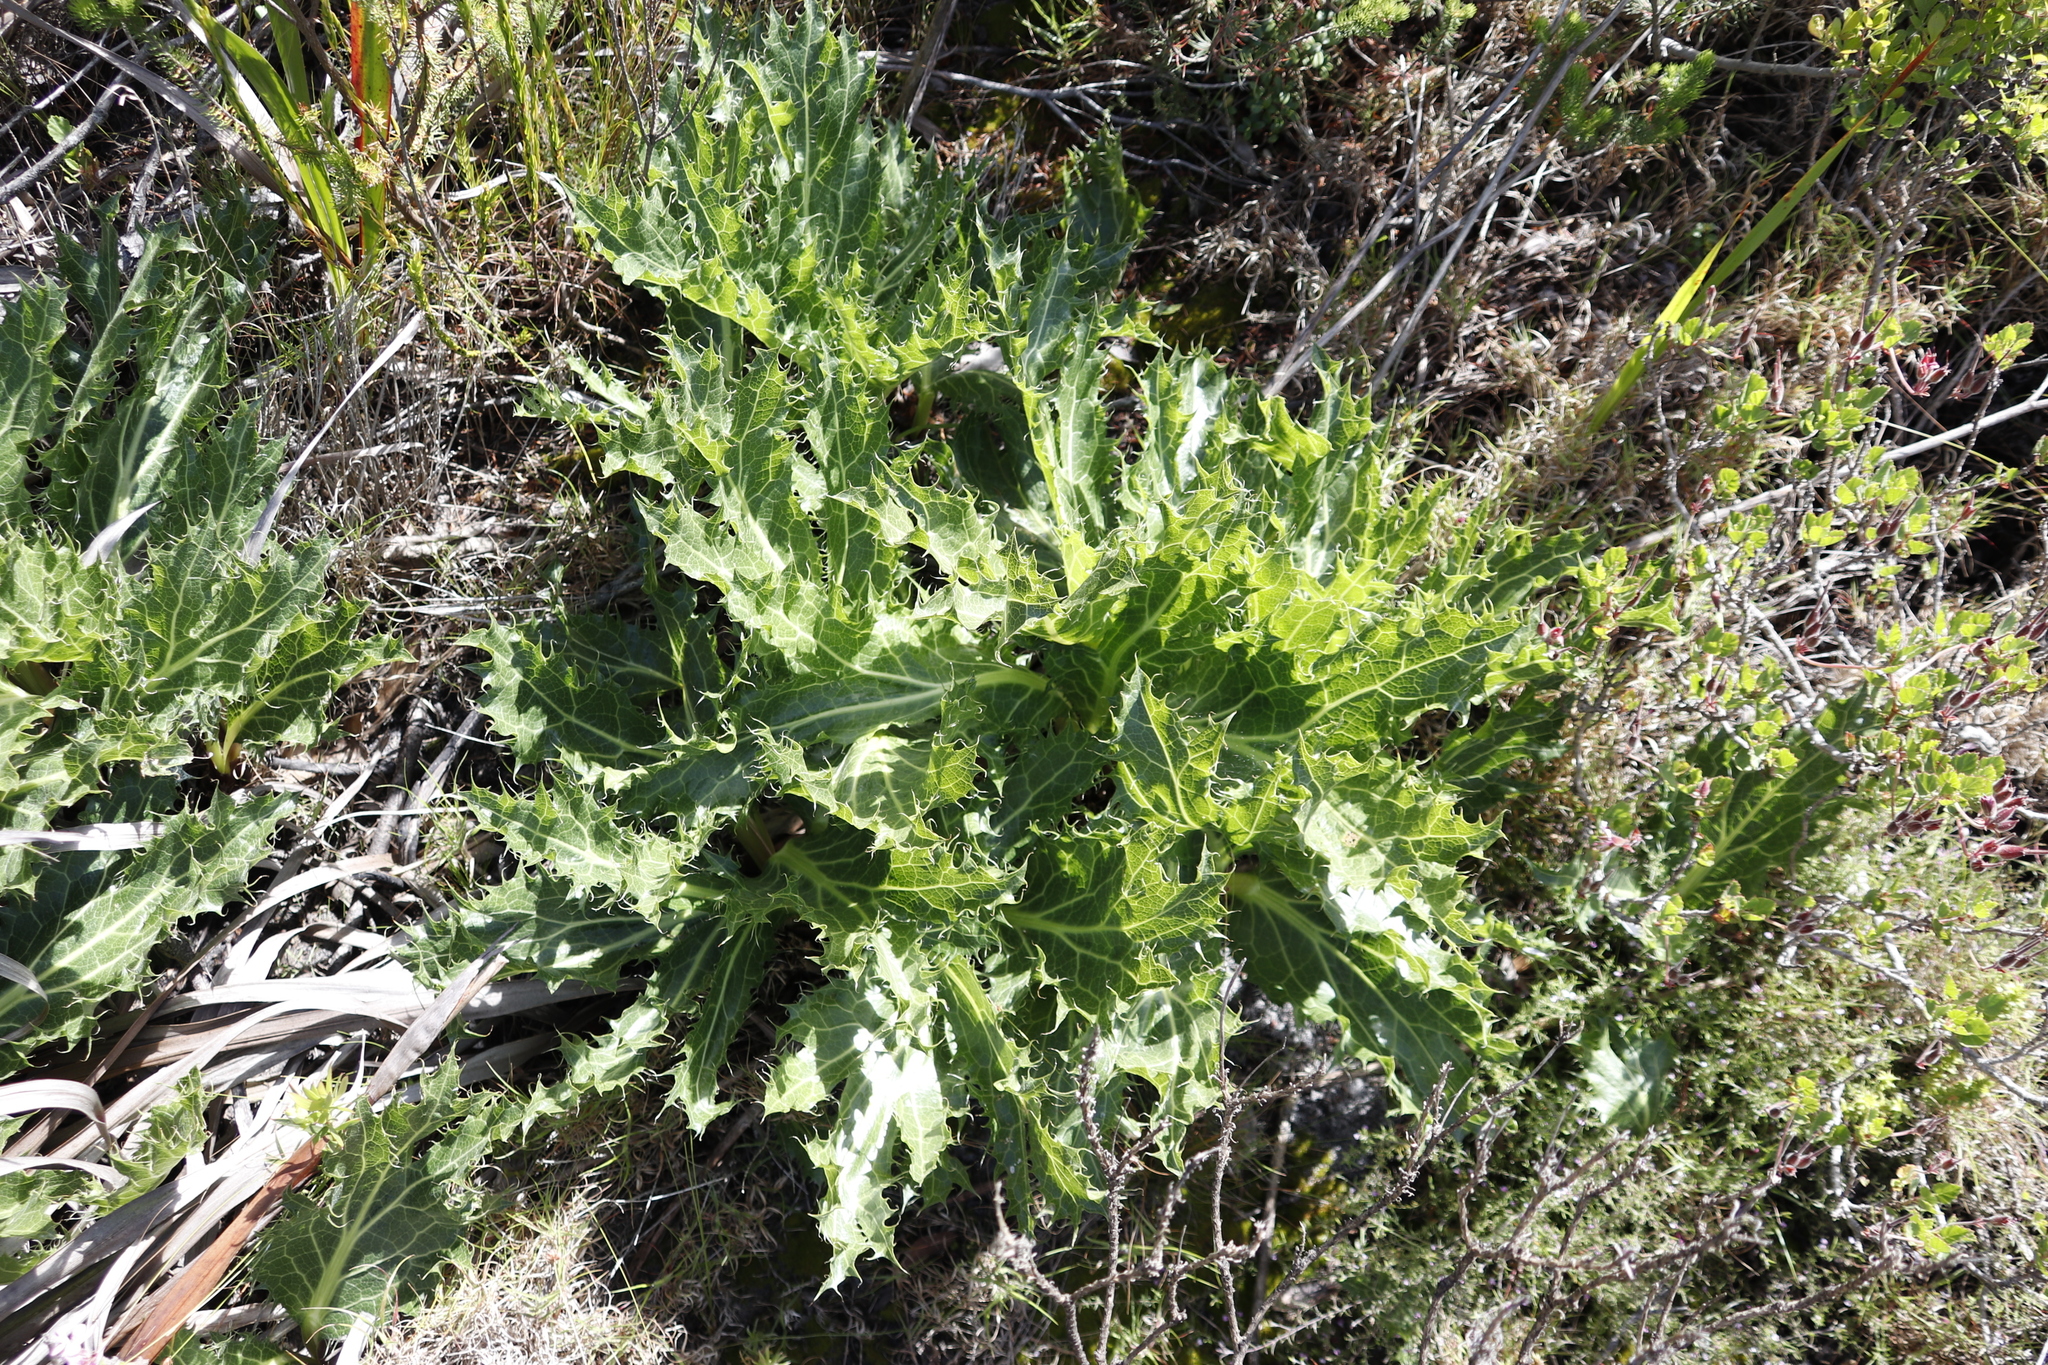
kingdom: Plantae
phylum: Tracheophyta
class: Magnoliopsida
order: Apiales
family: Apiaceae
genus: Lichtensteinia
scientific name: Lichtensteinia lacera
